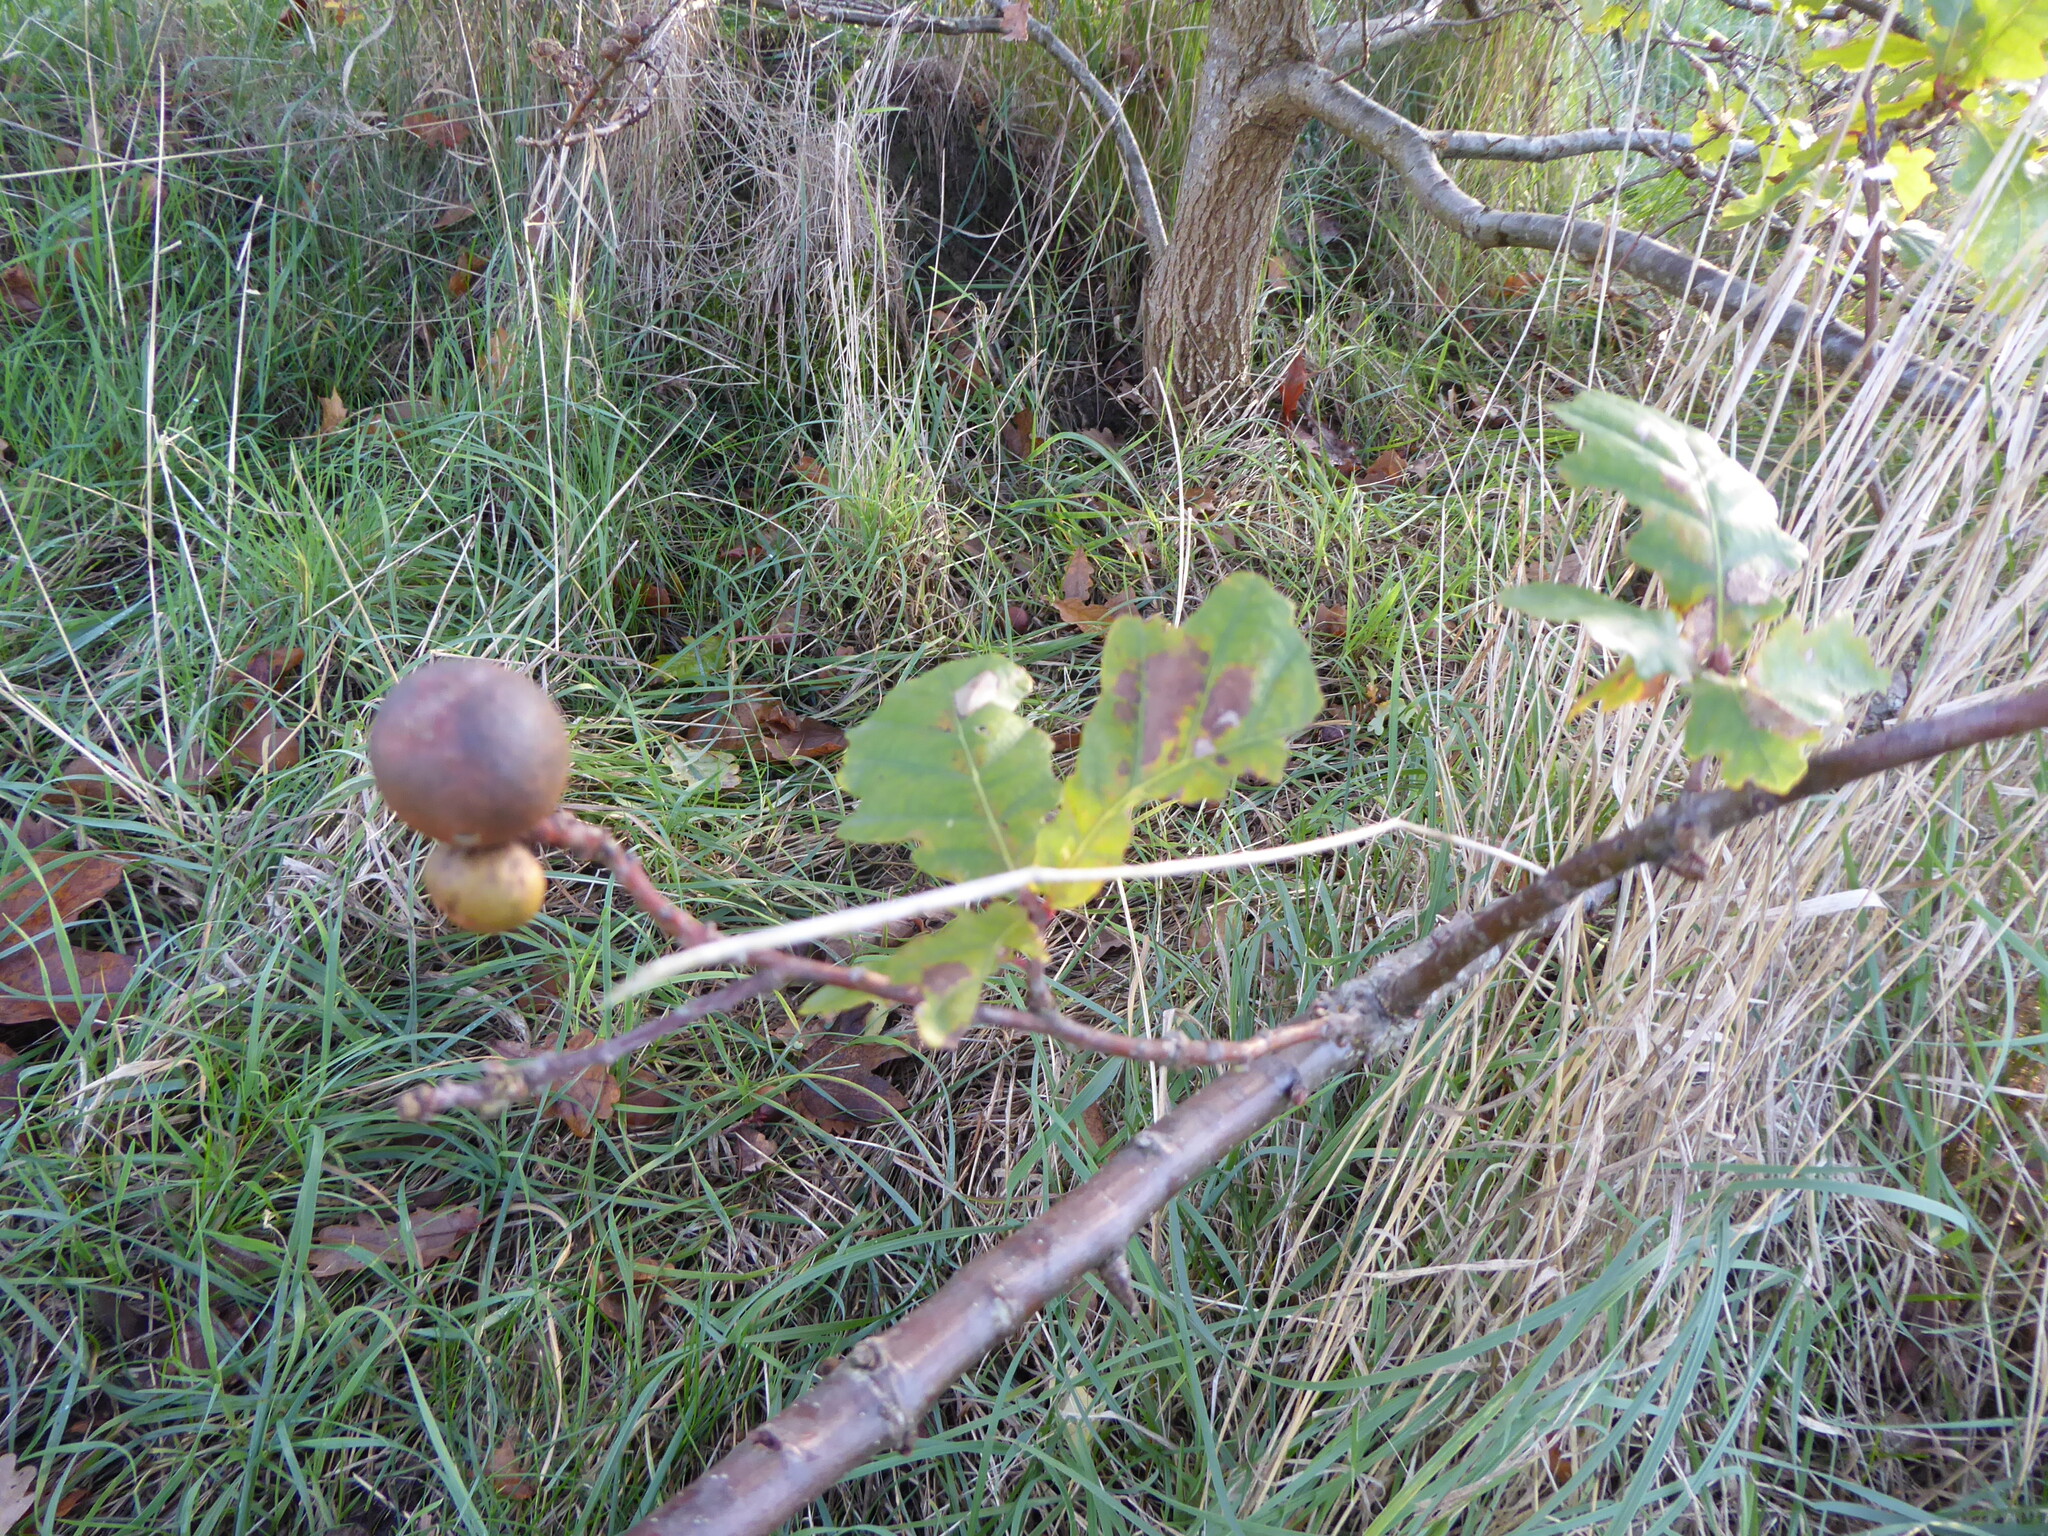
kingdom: Animalia
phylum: Arthropoda
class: Insecta
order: Hymenoptera
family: Cynipidae
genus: Andricus
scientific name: Andricus kollari
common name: Marble gall
